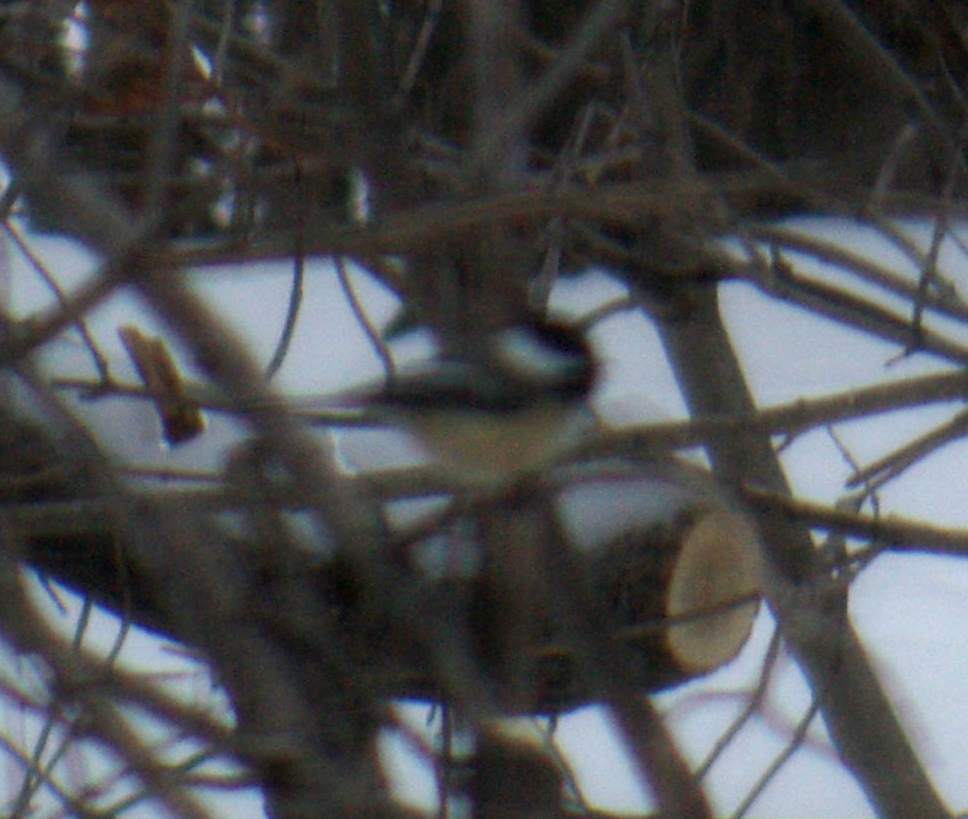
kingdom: Animalia
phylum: Chordata
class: Aves
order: Passeriformes
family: Paridae
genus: Poecile
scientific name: Poecile atricapillus
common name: Black-capped chickadee
